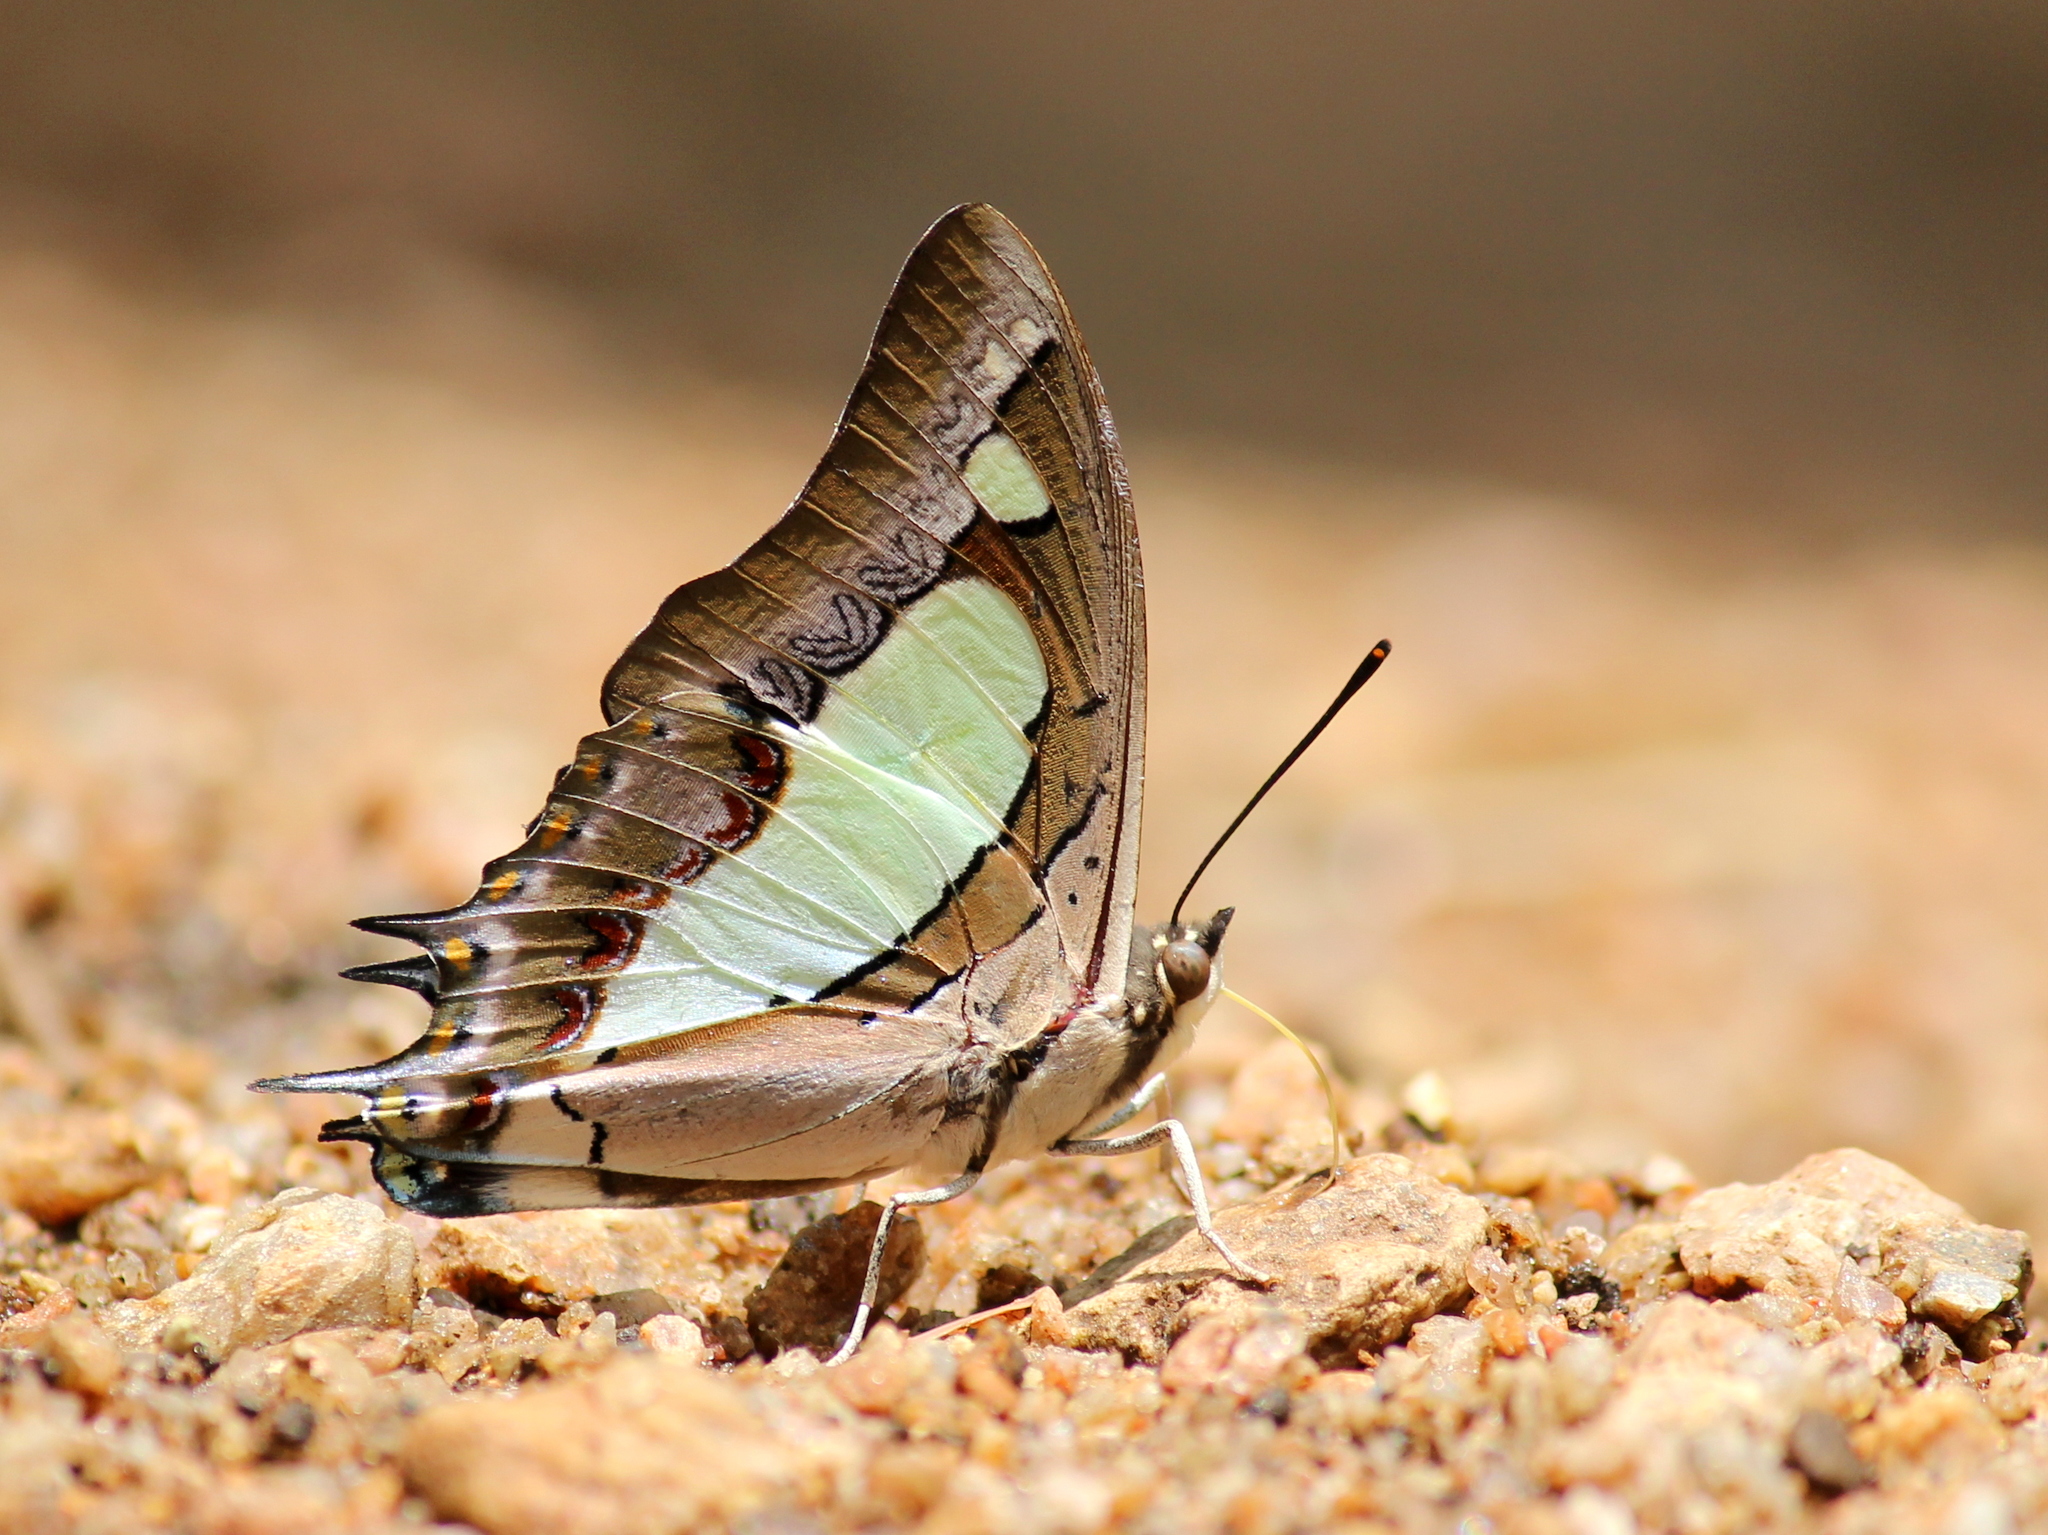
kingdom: Animalia
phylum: Arthropoda
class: Insecta
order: Lepidoptera
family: Nymphalidae
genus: Polyura
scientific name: Polyura agrarius
